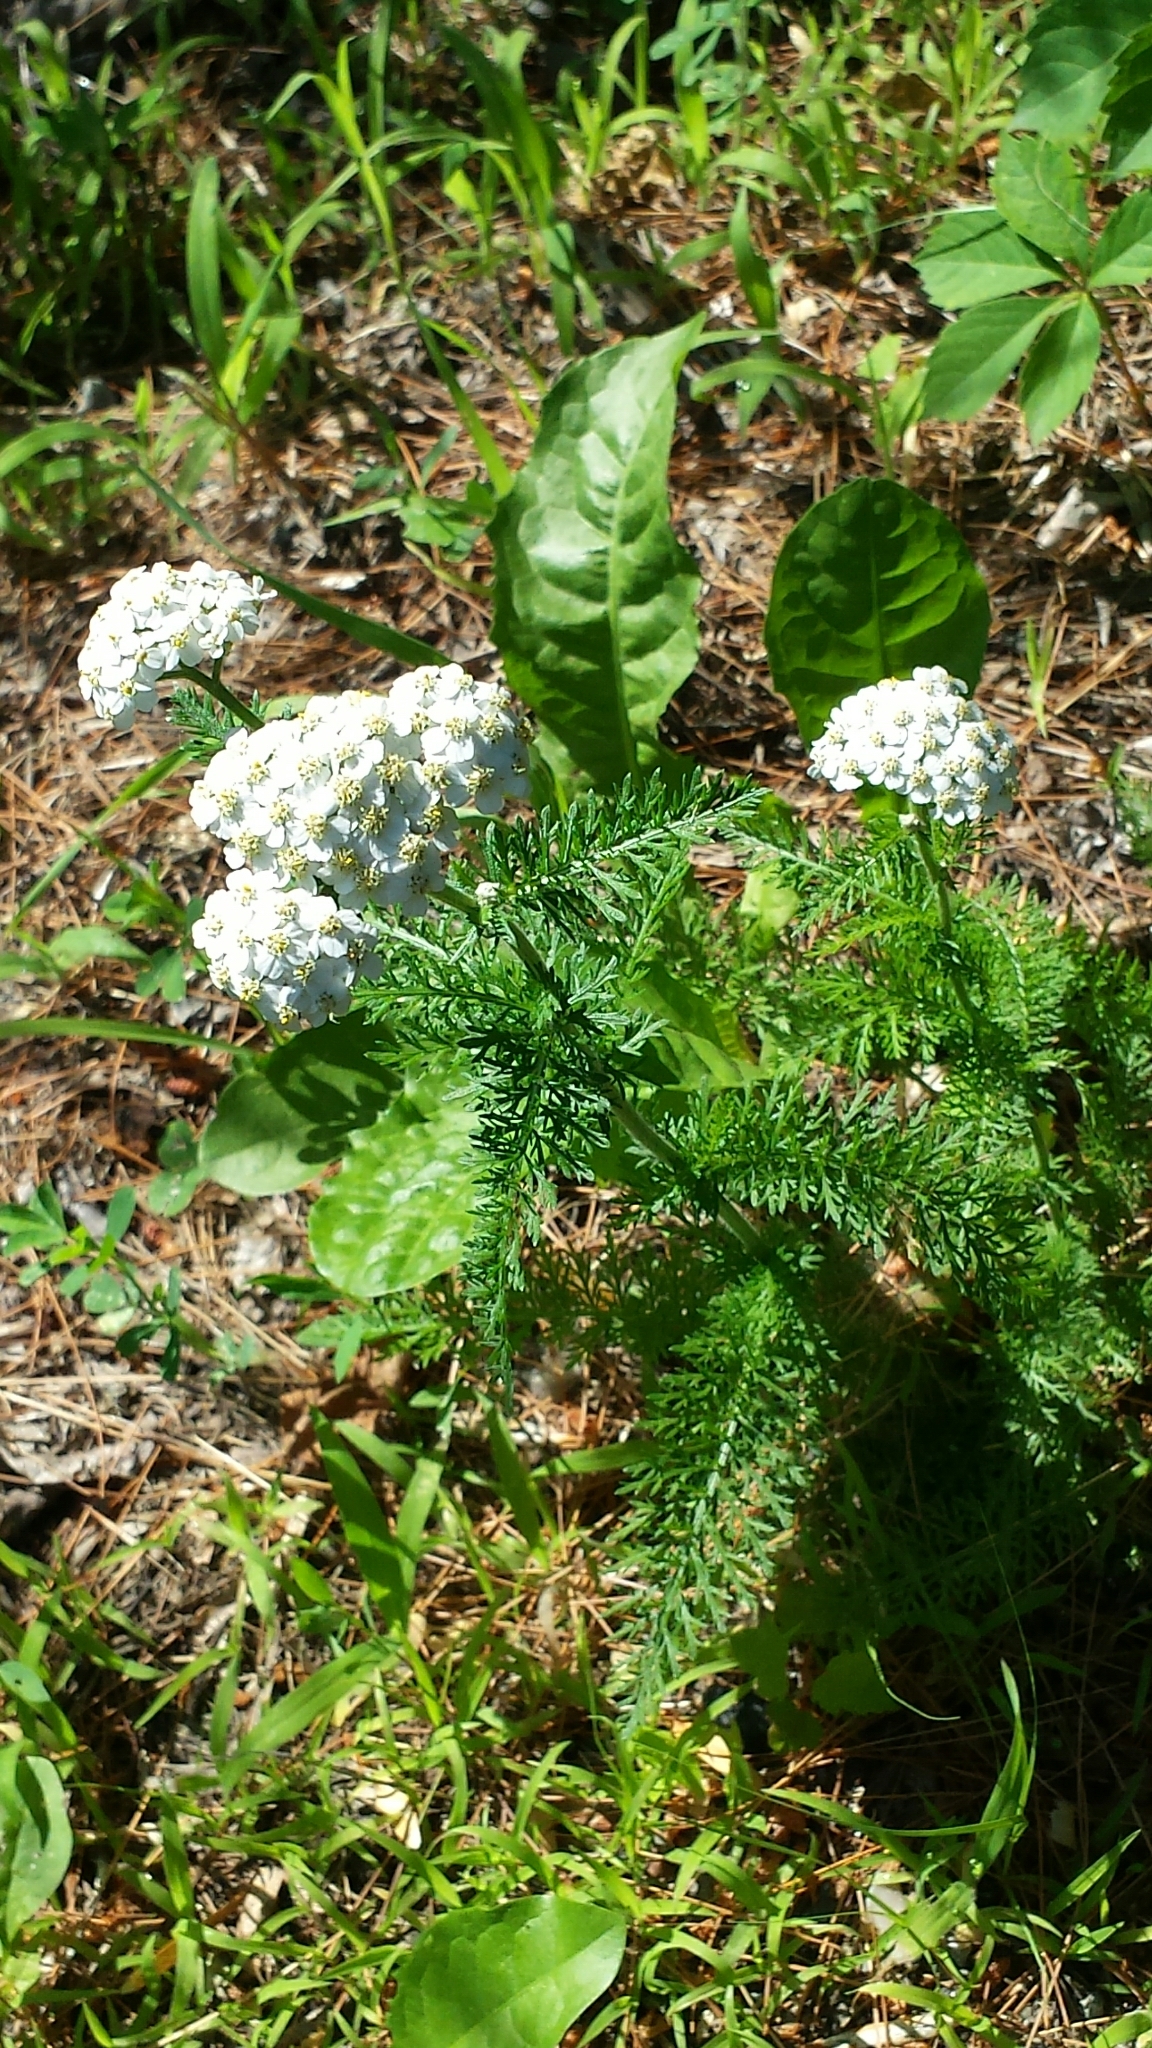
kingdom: Plantae
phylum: Tracheophyta
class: Magnoliopsida
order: Asterales
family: Asteraceae
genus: Achillea
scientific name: Achillea millefolium
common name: Yarrow
